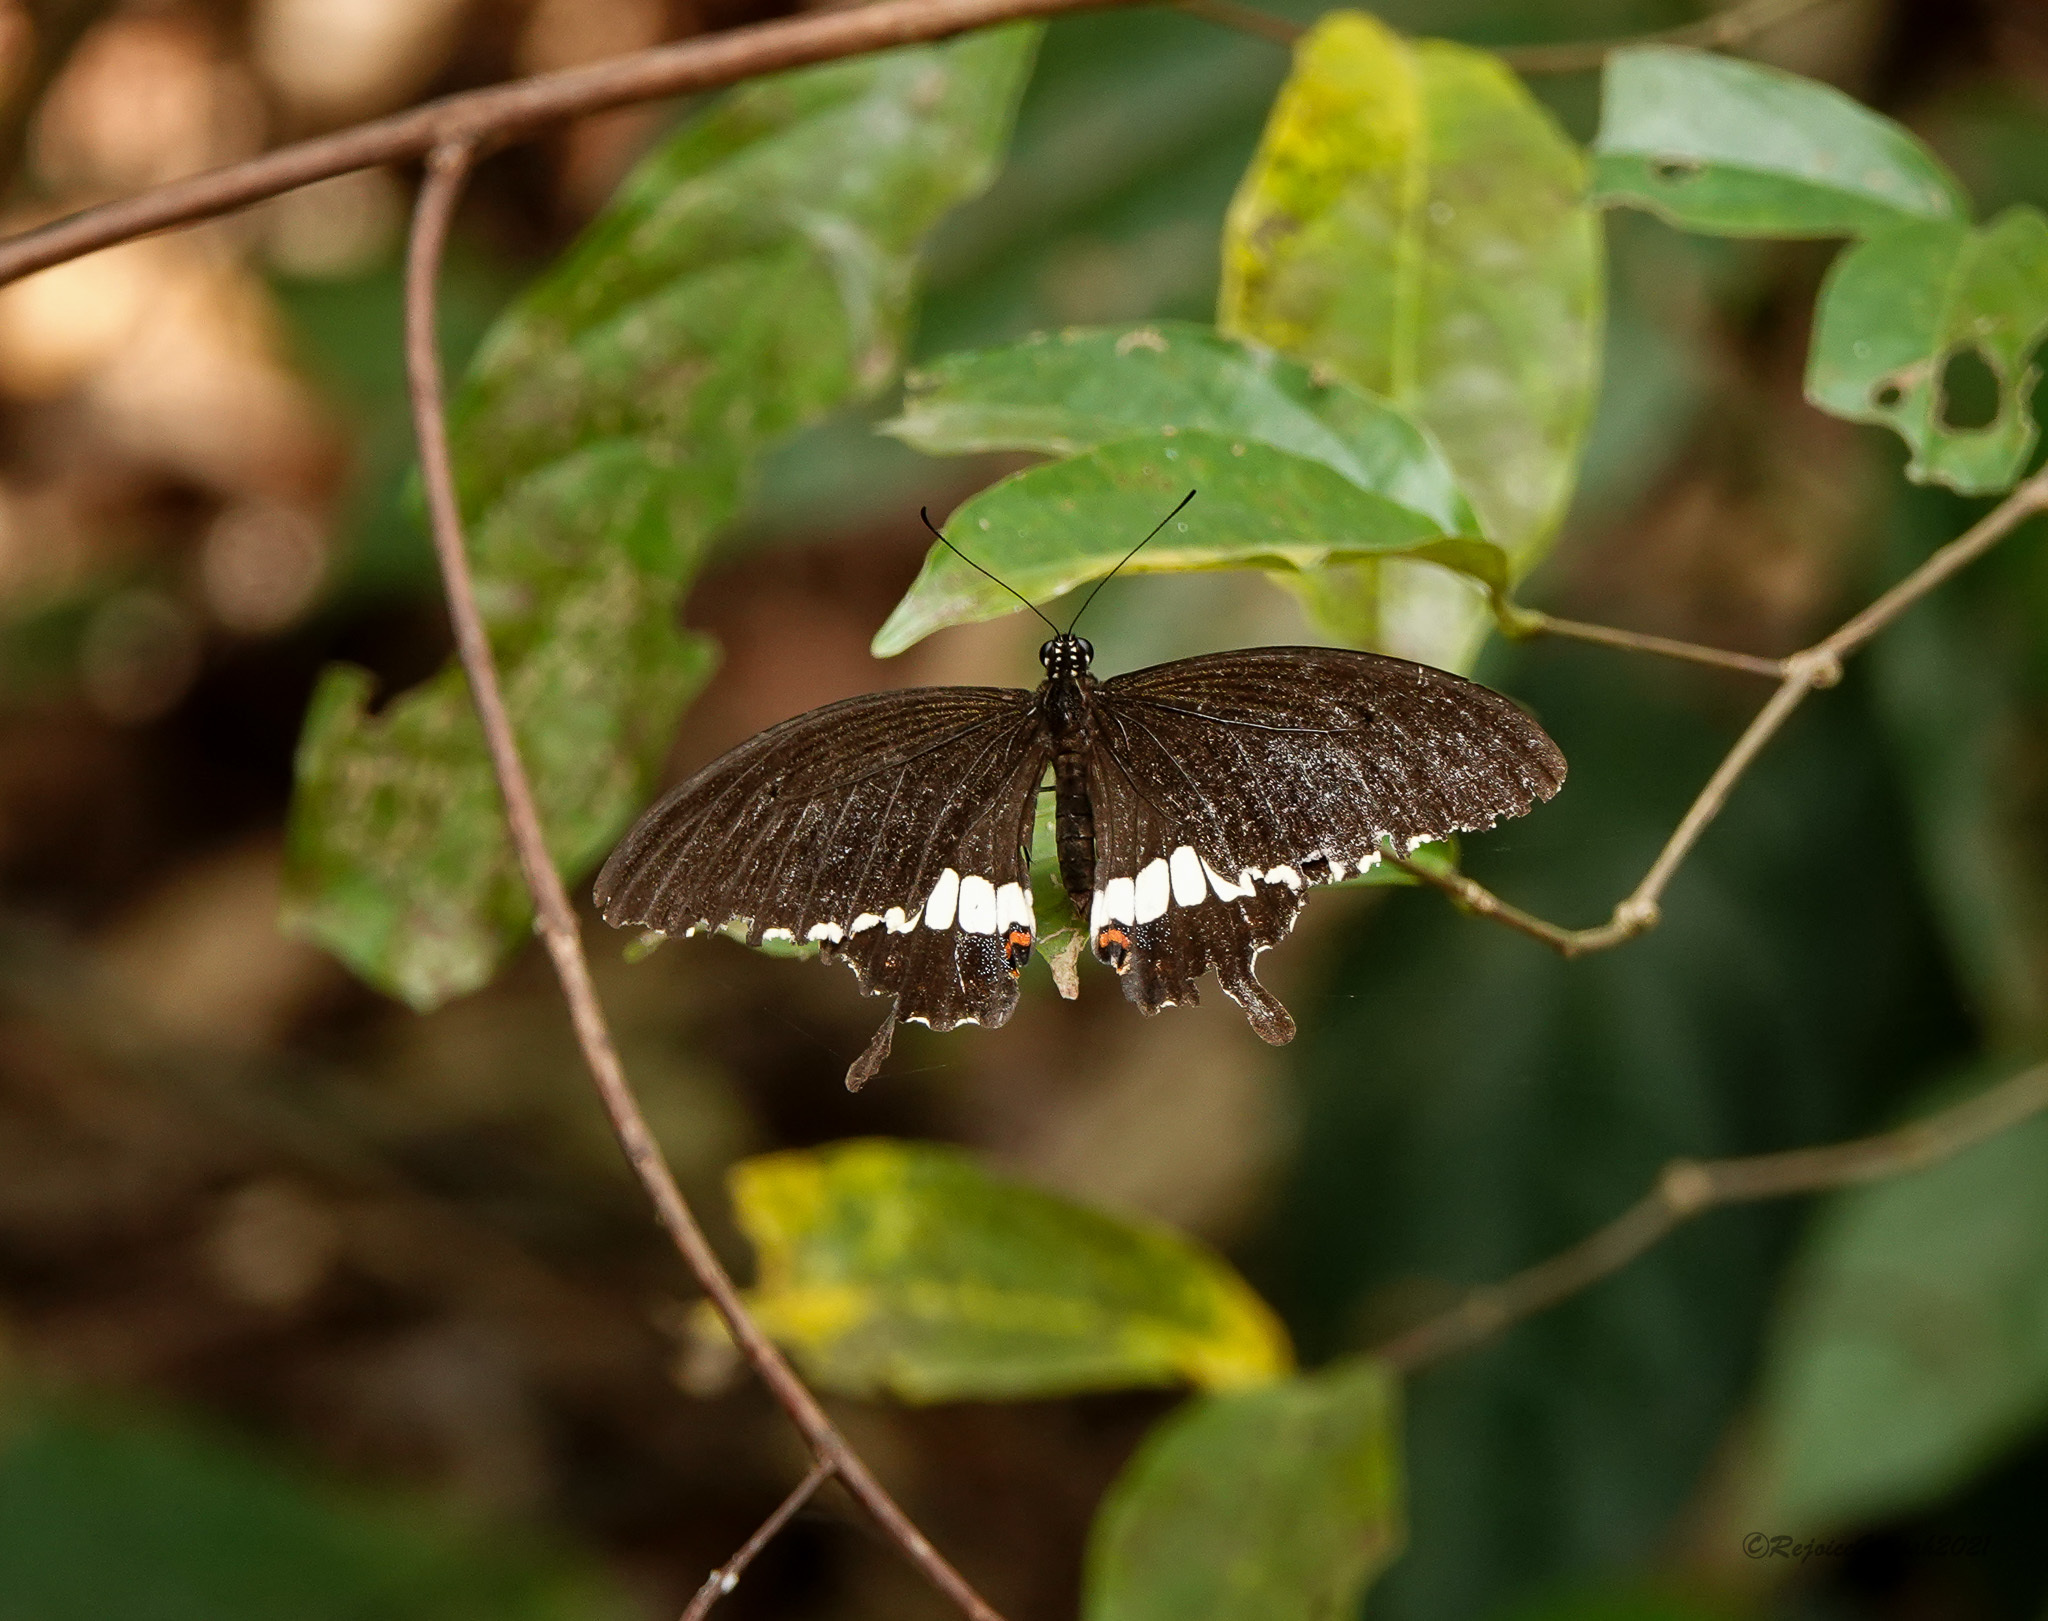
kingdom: Animalia
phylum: Arthropoda
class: Insecta
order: Lepidoptera
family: Papilionidae
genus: Papilio
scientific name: Papilio polytes
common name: Common mormon
